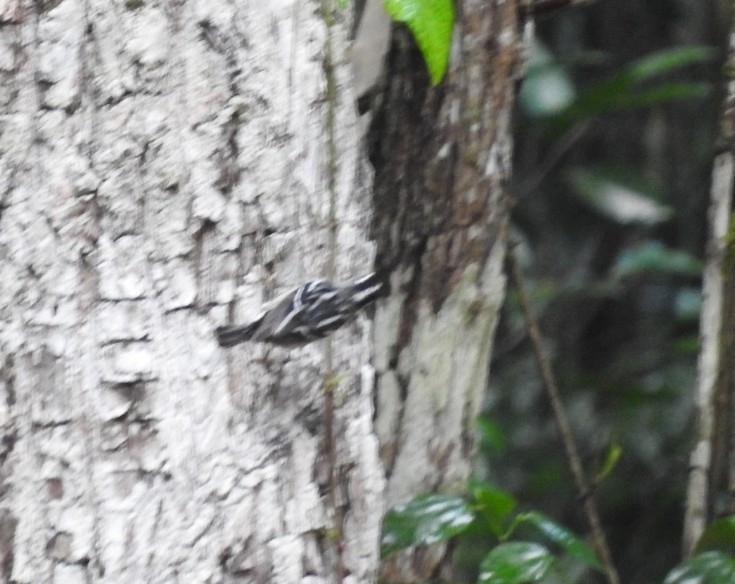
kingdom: Animalia
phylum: Chordata
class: Aves
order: Passeriformes
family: Parulidae
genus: Mniotilta
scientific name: Mniotilta varia
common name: Black-and-white warbler
